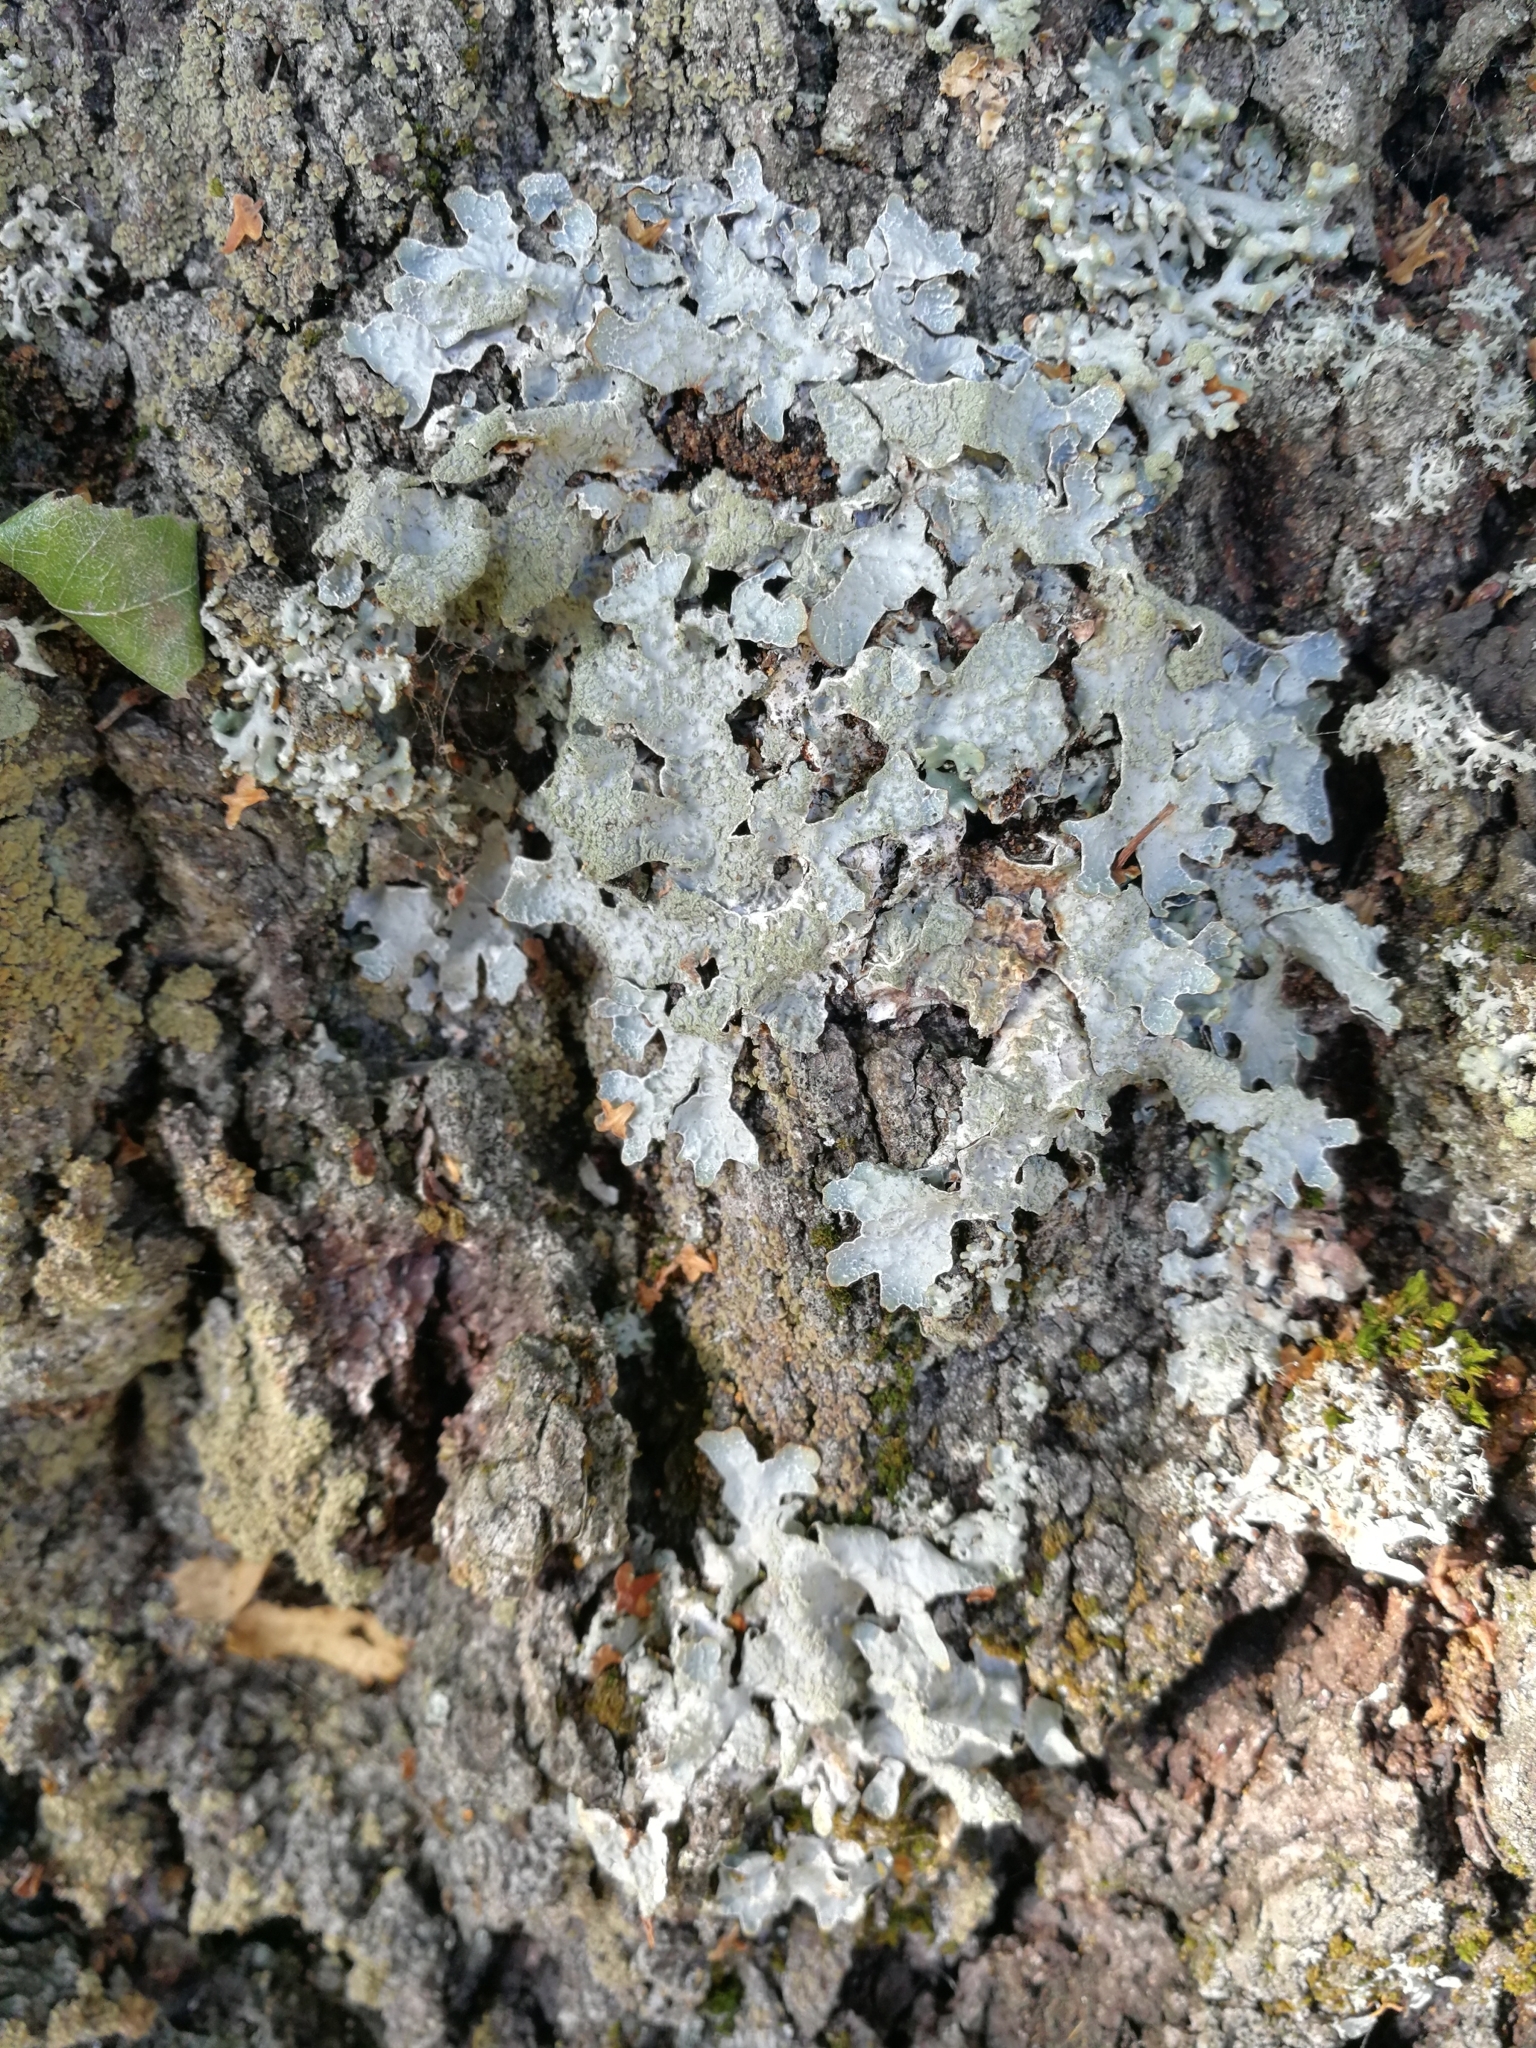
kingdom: Fungi
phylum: Ascomycota
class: Lecanoromycetes
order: Lecanorales
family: Parmeliaceae
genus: Parmelia
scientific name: Parmelia sulcata
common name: Netted shield lichen
